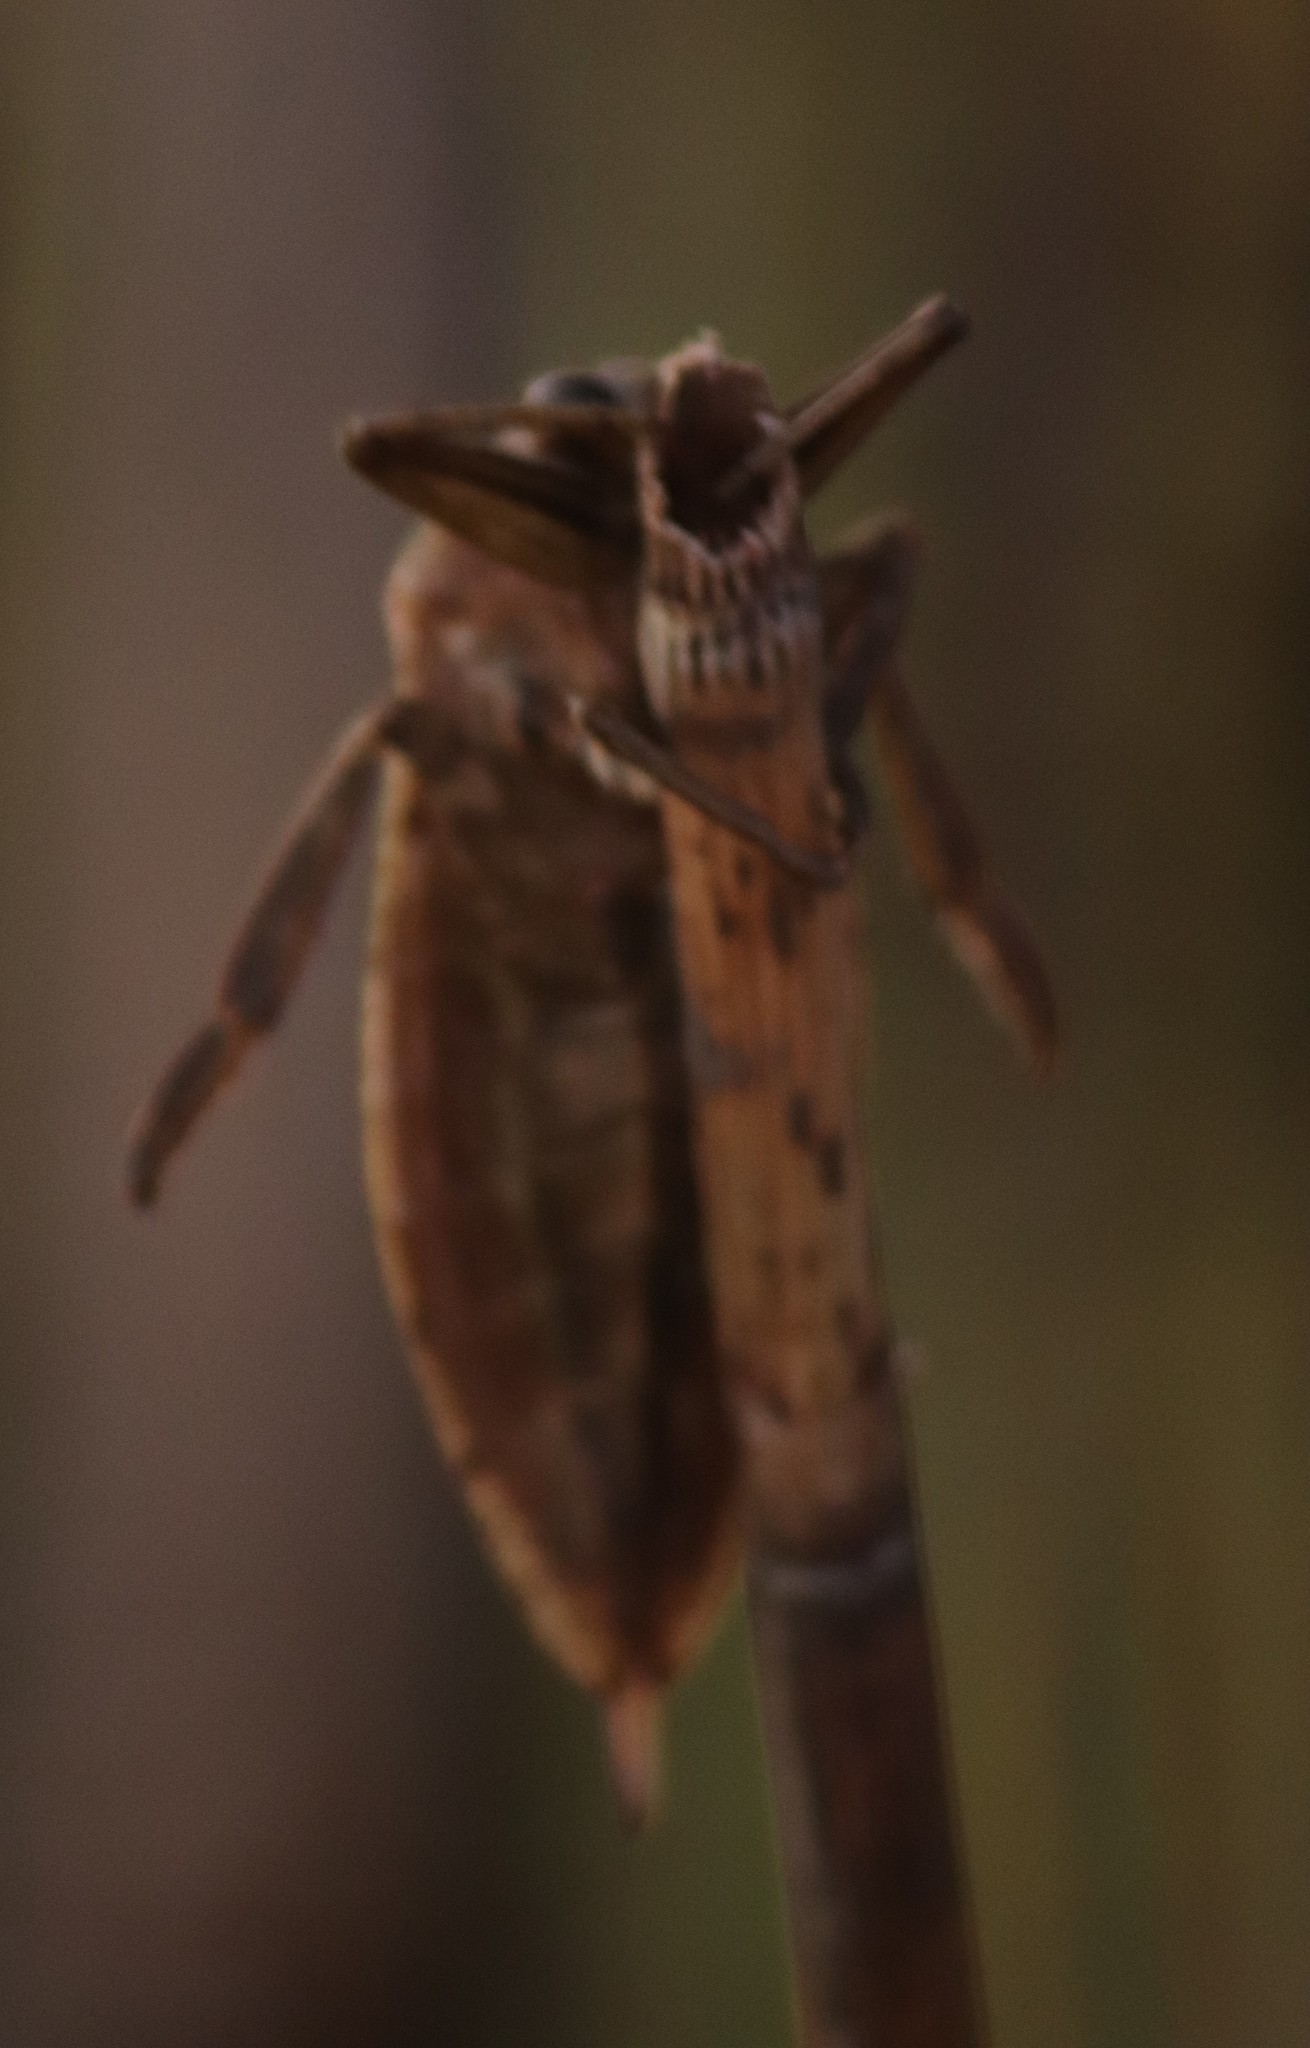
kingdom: Animalia
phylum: Arthropoda
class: Insecta
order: Hemiptera
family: Belostomatidae
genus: Lethocerus
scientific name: Lethocerus americanus
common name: Giant water bug
